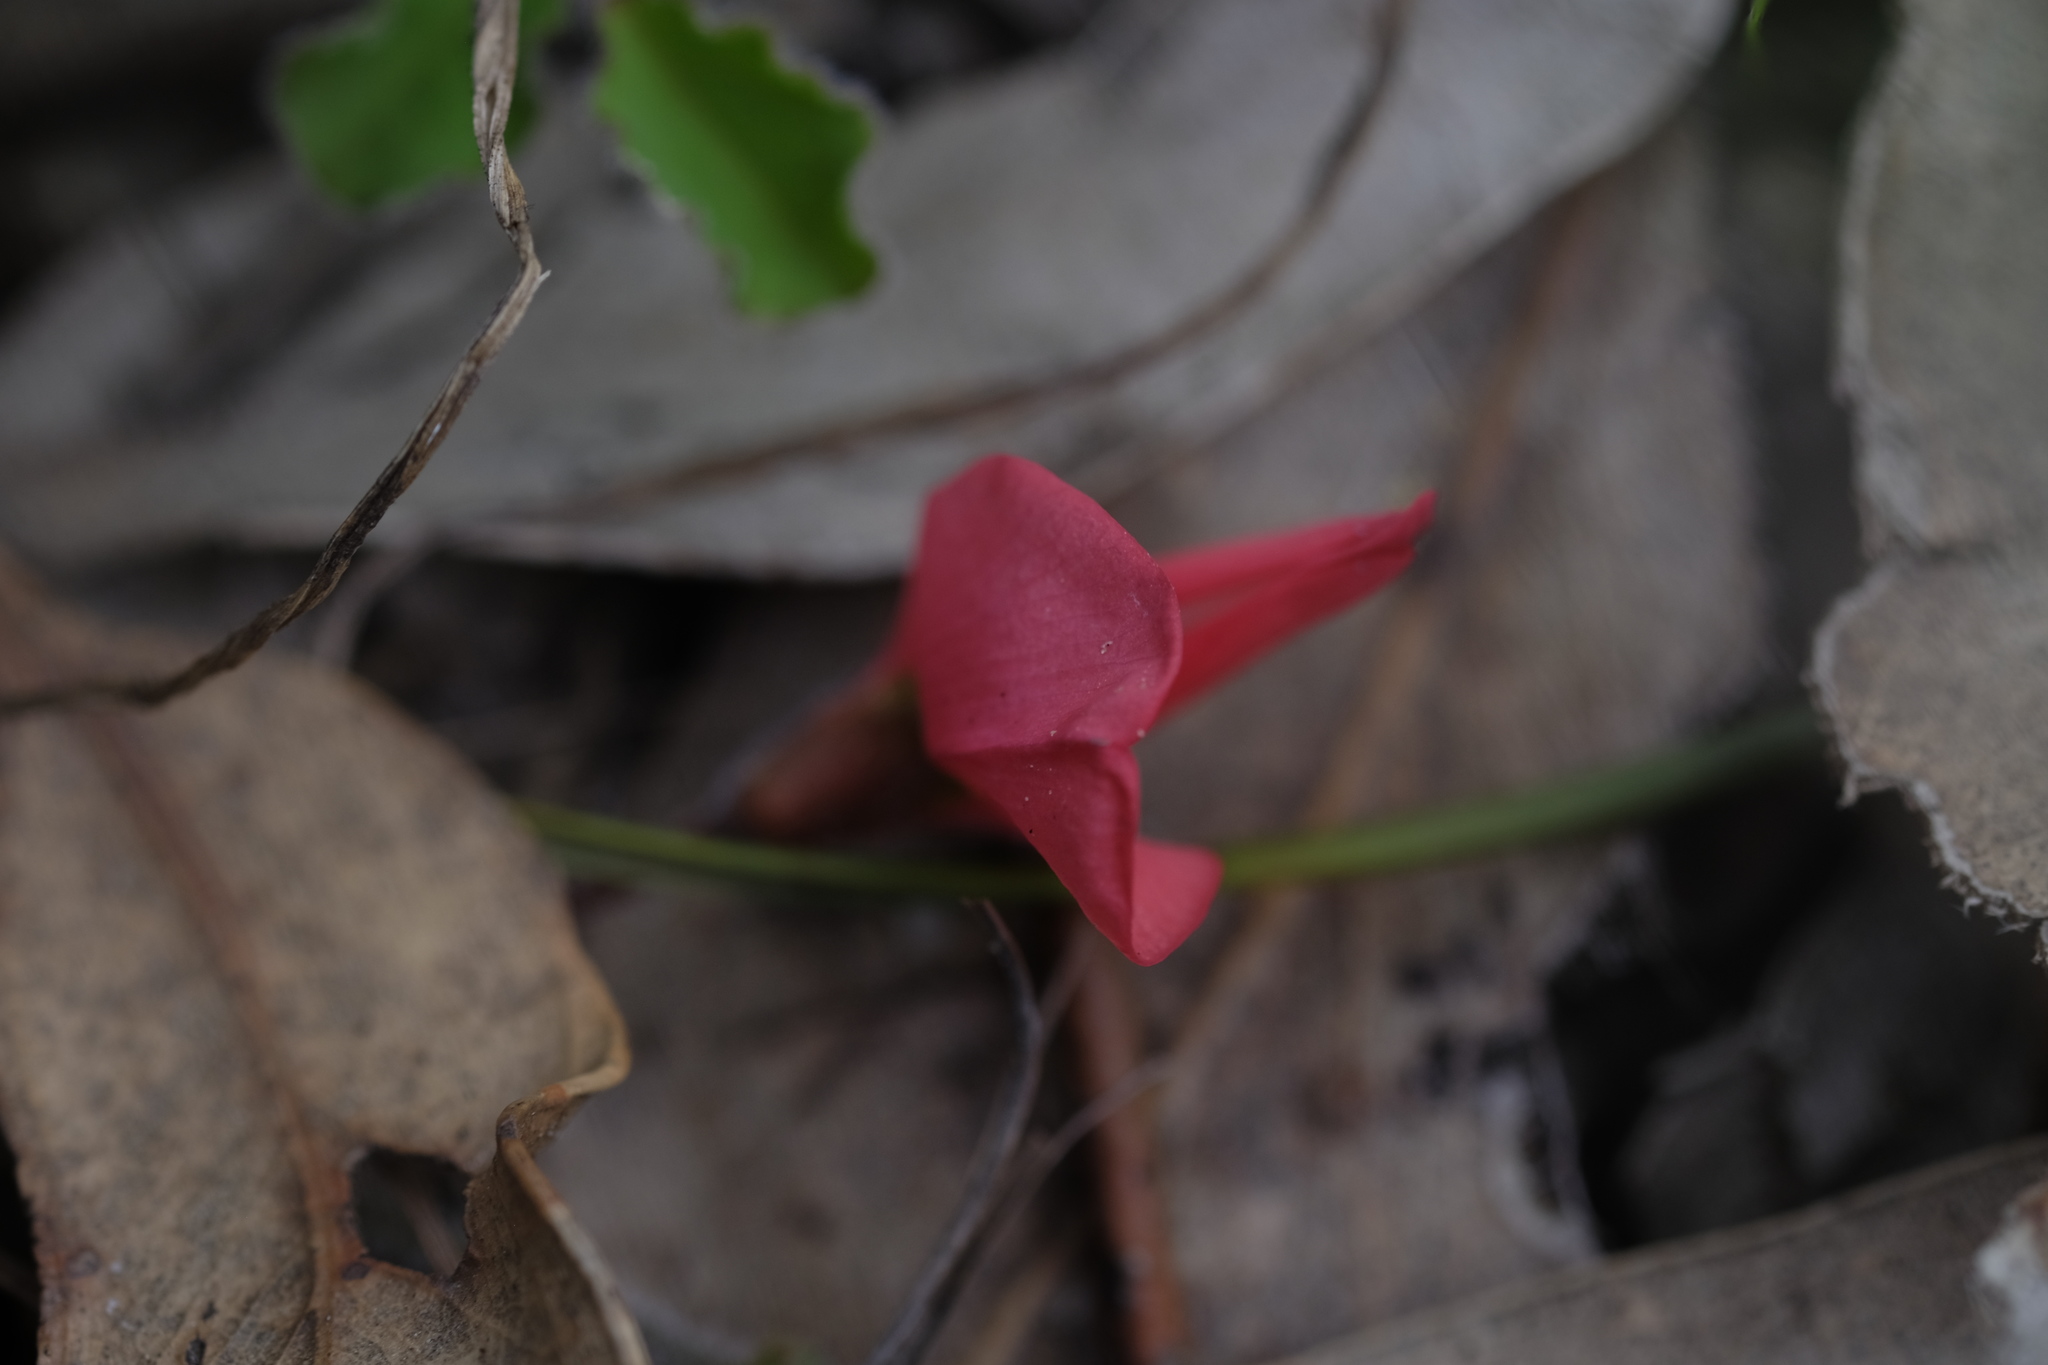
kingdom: Plantae
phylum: Tracheophyta
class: Magnoliopsida
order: Fabales
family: Fabaceae
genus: Kennedia
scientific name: Kennedia prostrata
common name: Running-postman
